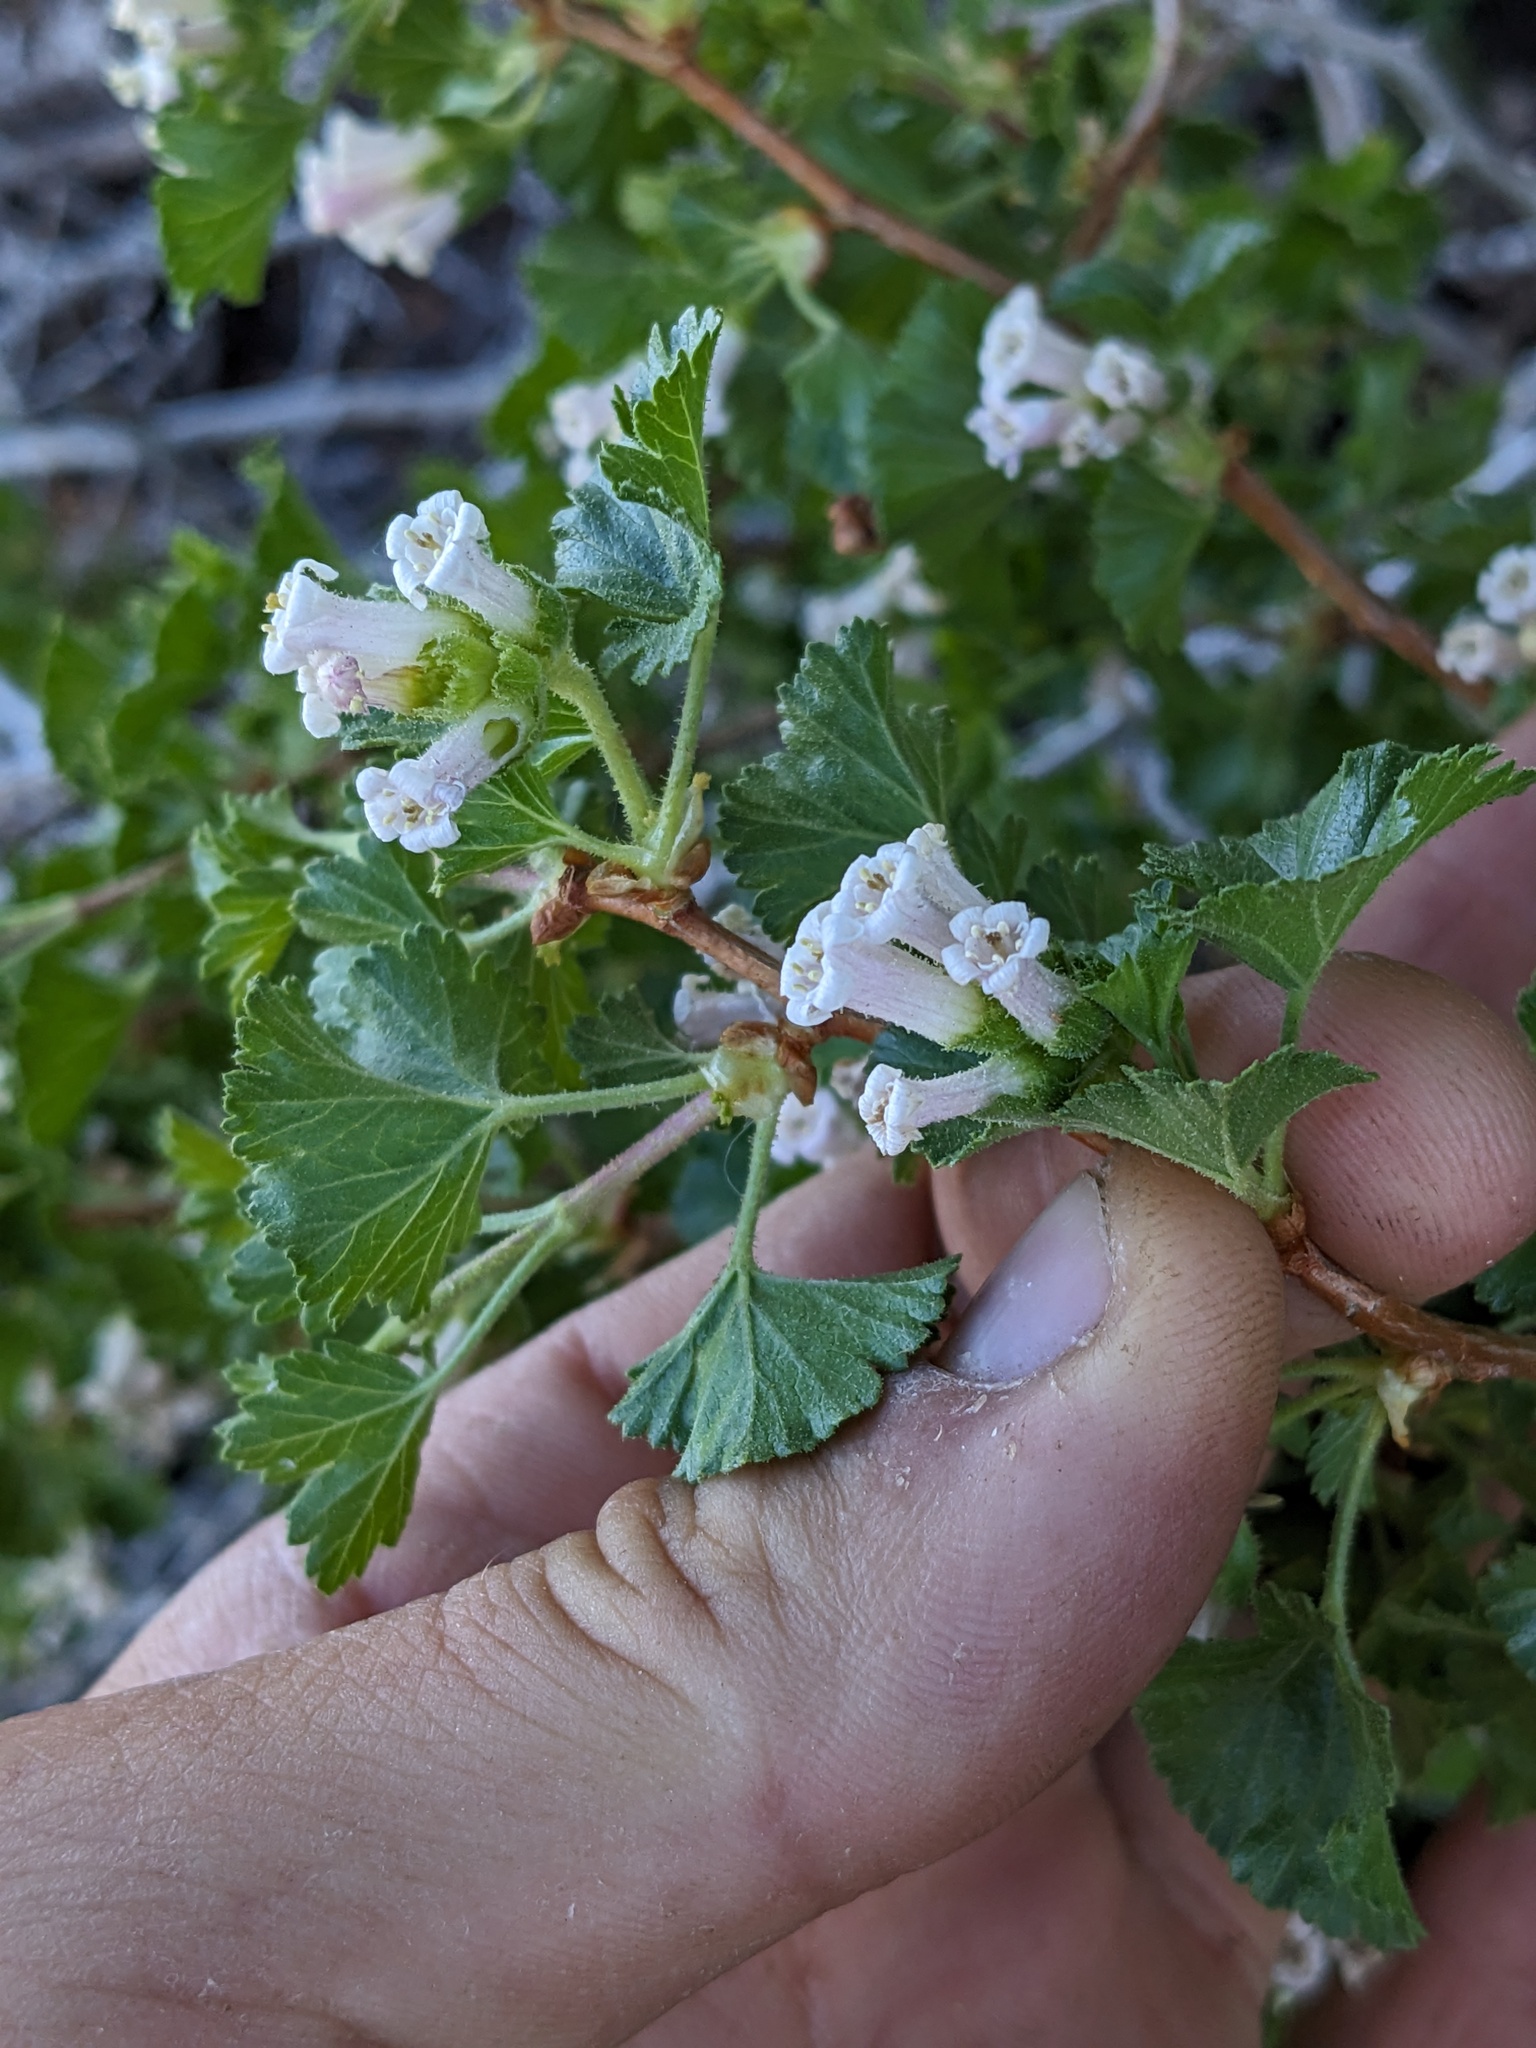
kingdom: Plantae
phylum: Tracheophyta
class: Magnoliopsida
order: Saxifragales
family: Grossulariaceae
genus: Ribes
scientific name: Ribes cereum
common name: Wax currant
